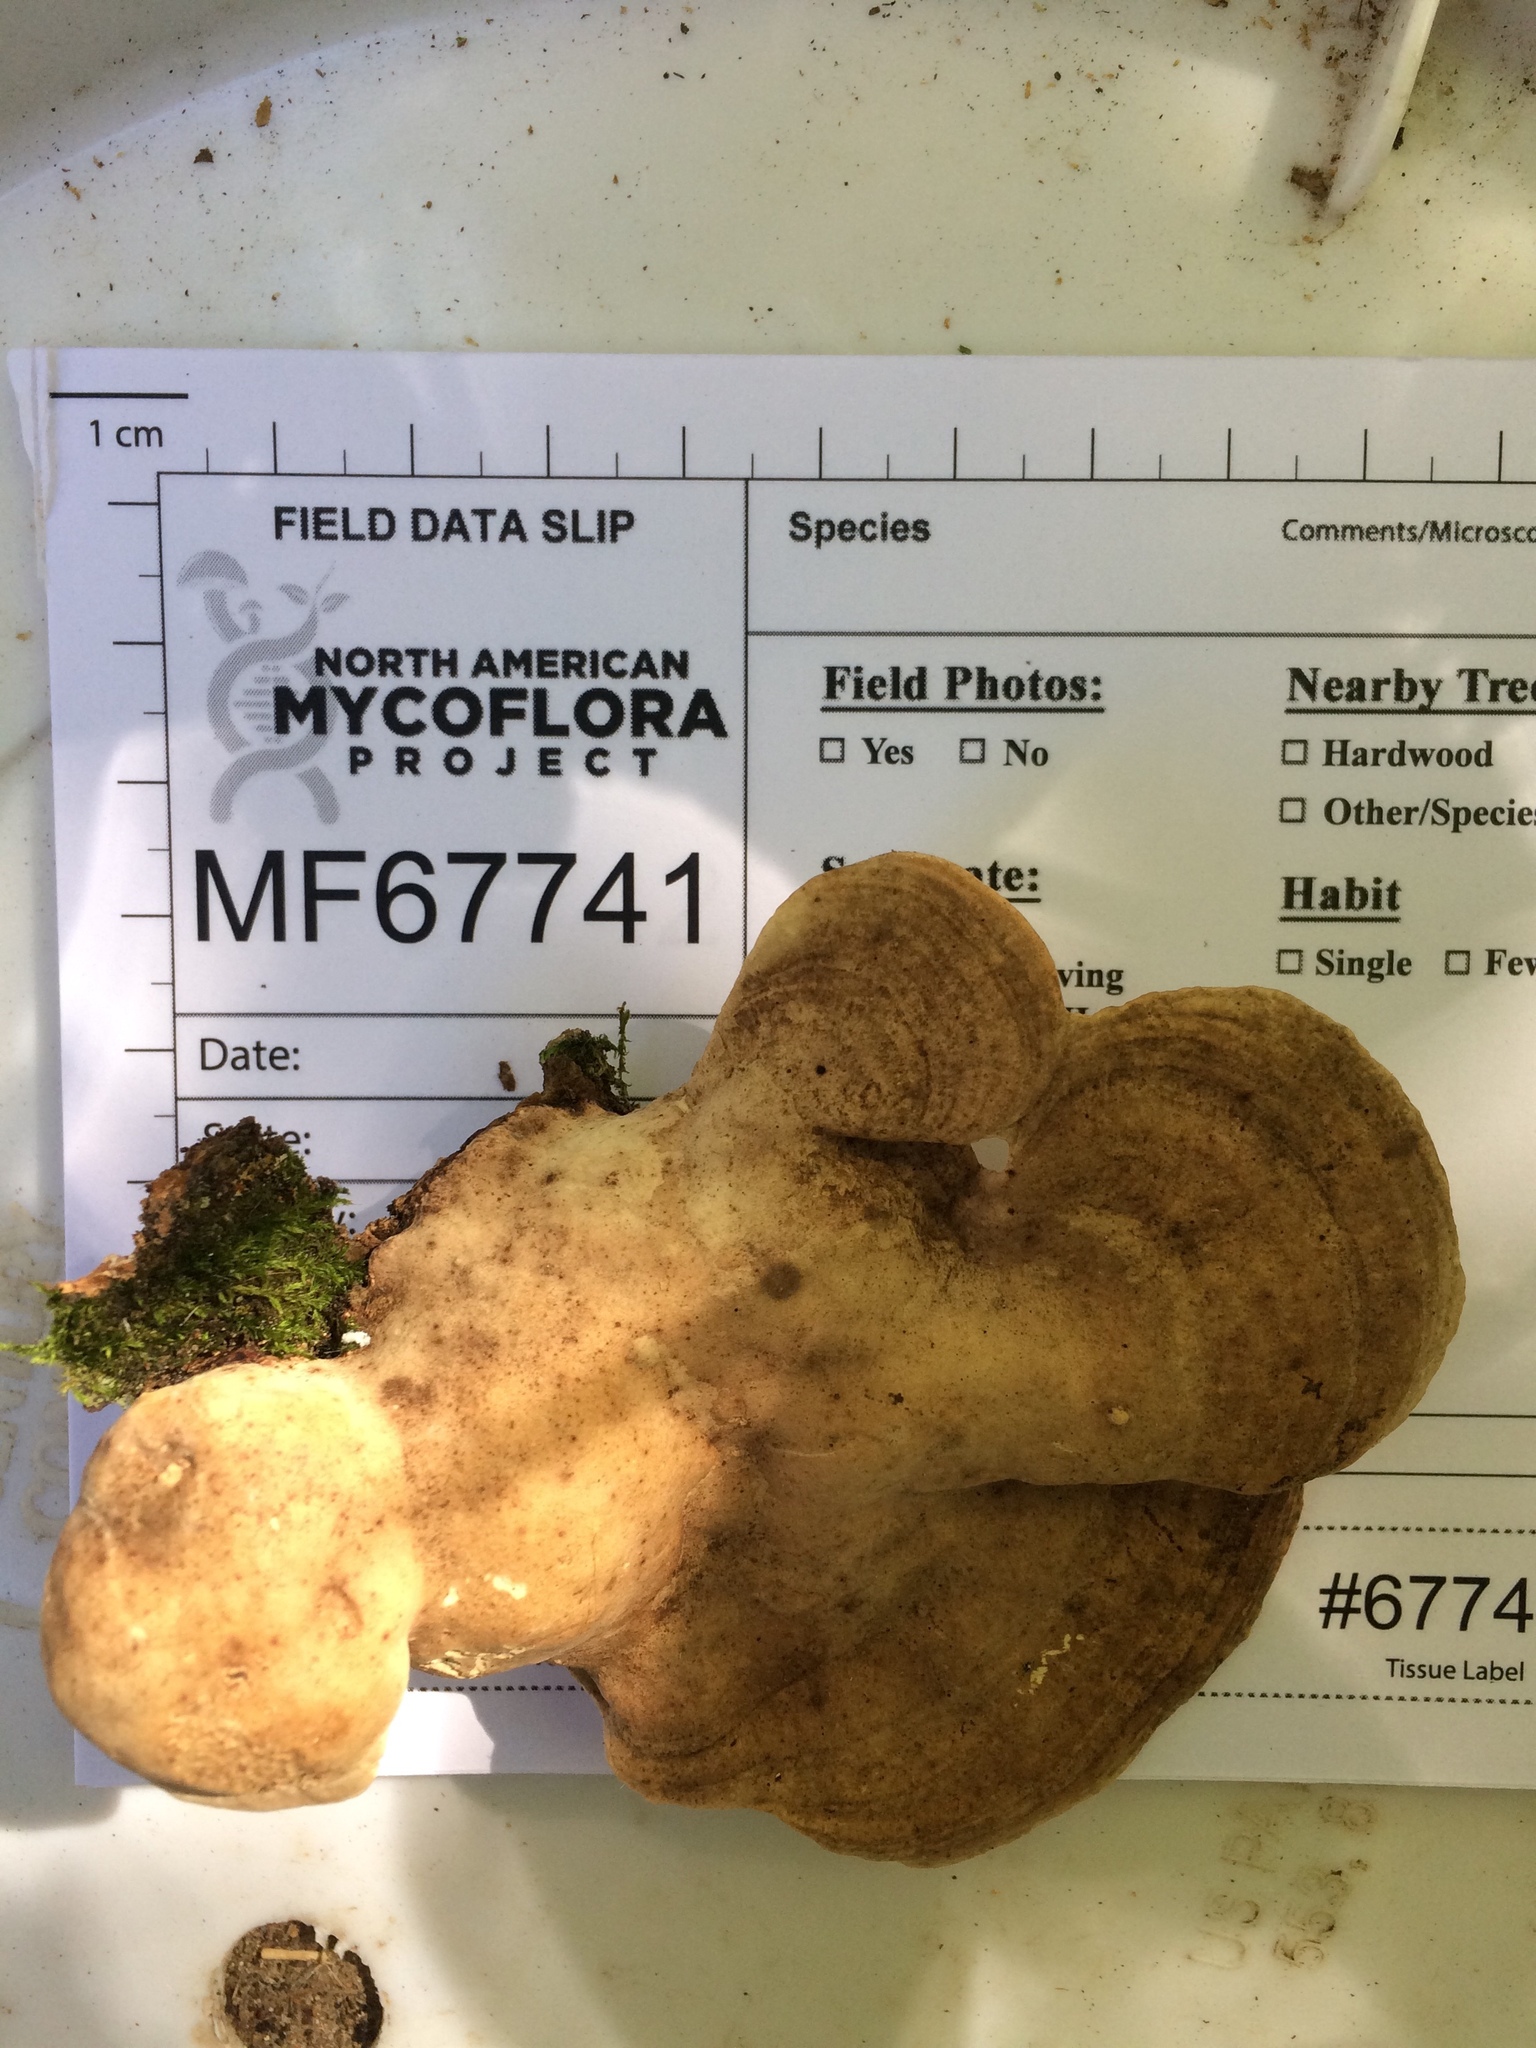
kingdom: Fungi
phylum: Basidiomycota
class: Agaricomycetes
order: Polyporales
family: Polyporaceae
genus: Trametes
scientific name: Trametes
